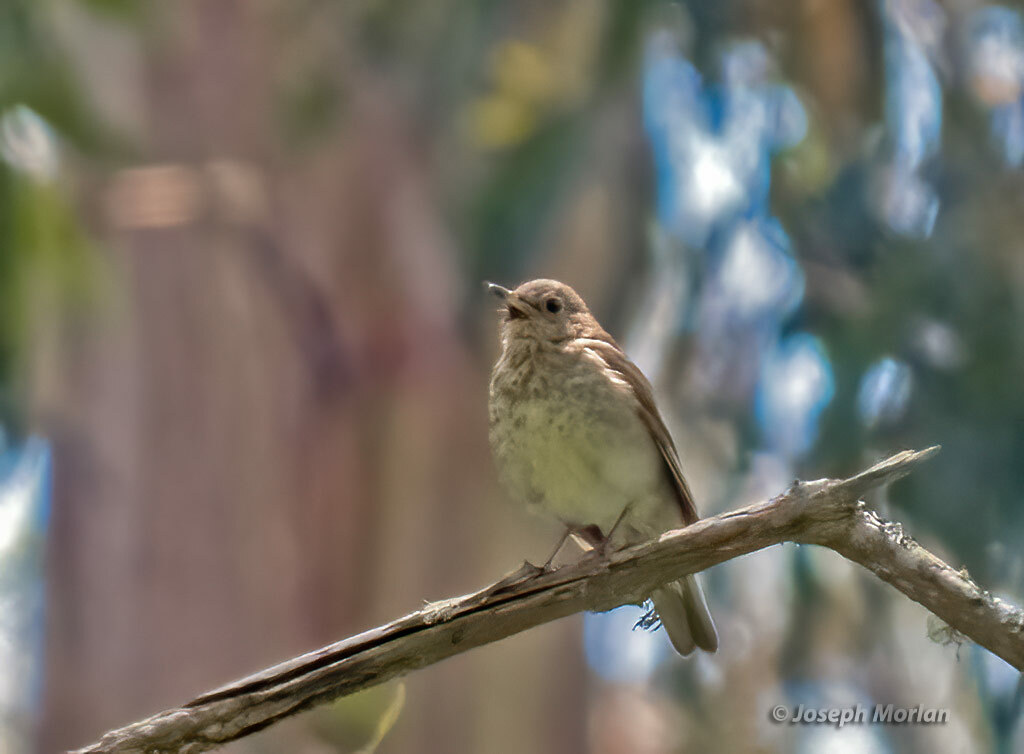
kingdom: Animalia
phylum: Chordata
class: Aves
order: Passeriformes
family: Turdidae
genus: Catharus
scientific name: Catharus ustulatus
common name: Swainson's thrush
